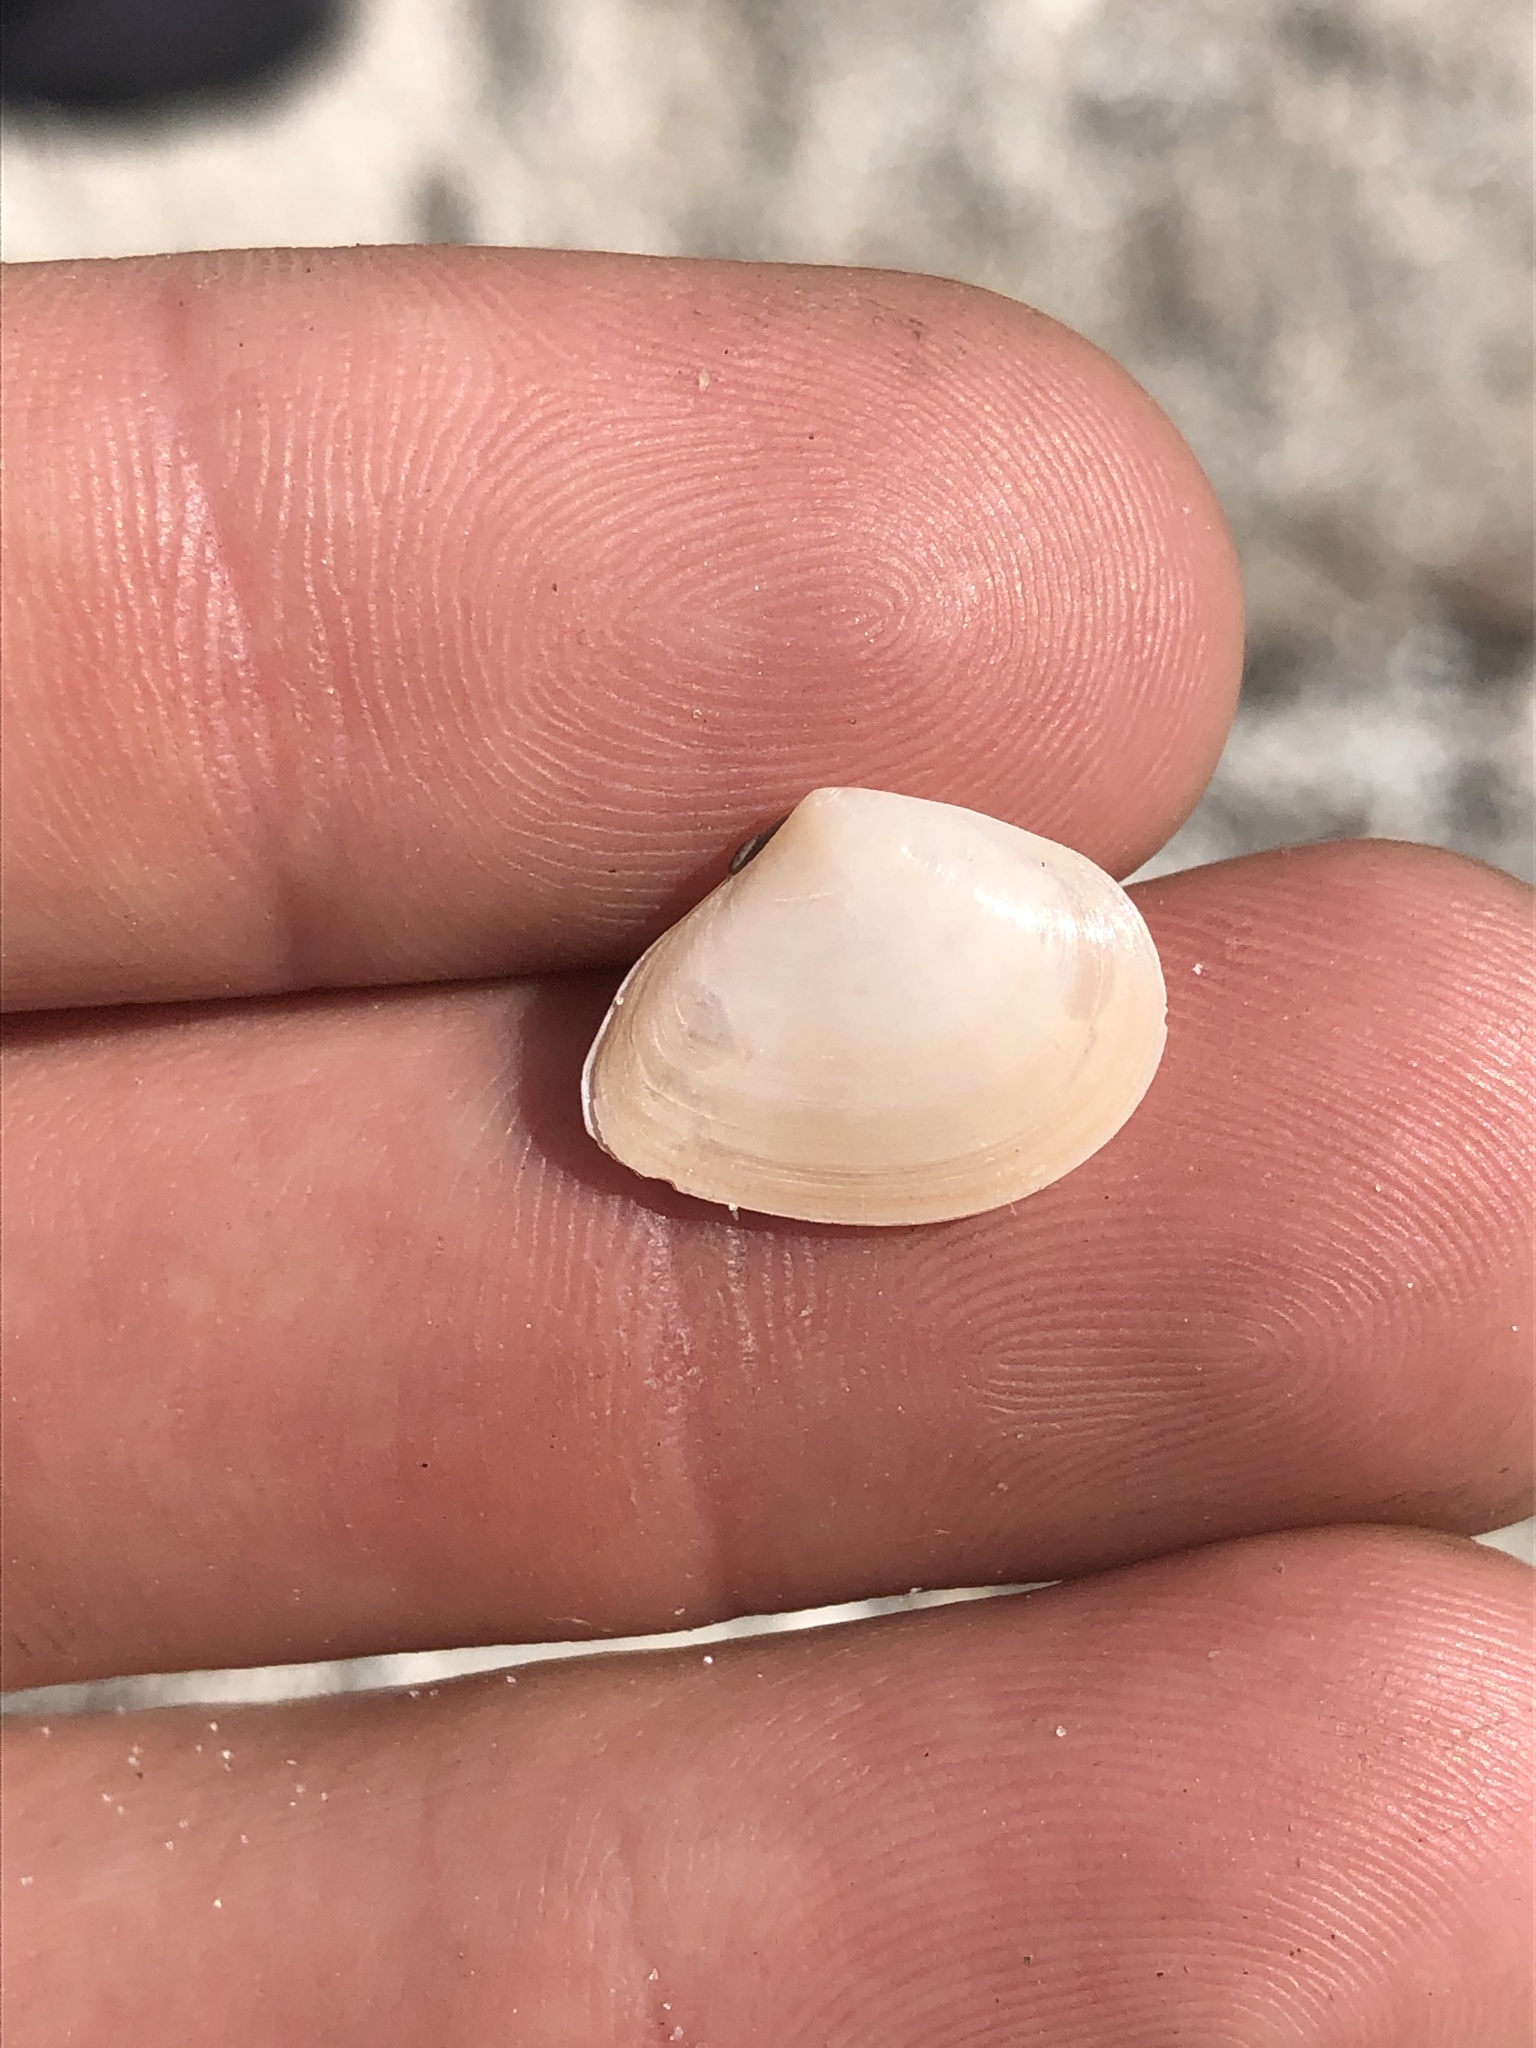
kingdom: Animalia
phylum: Mollusca
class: Bivalvia
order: Cardiida
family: Tellinidae
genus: Tampaella
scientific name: Tampaella tampaensis
